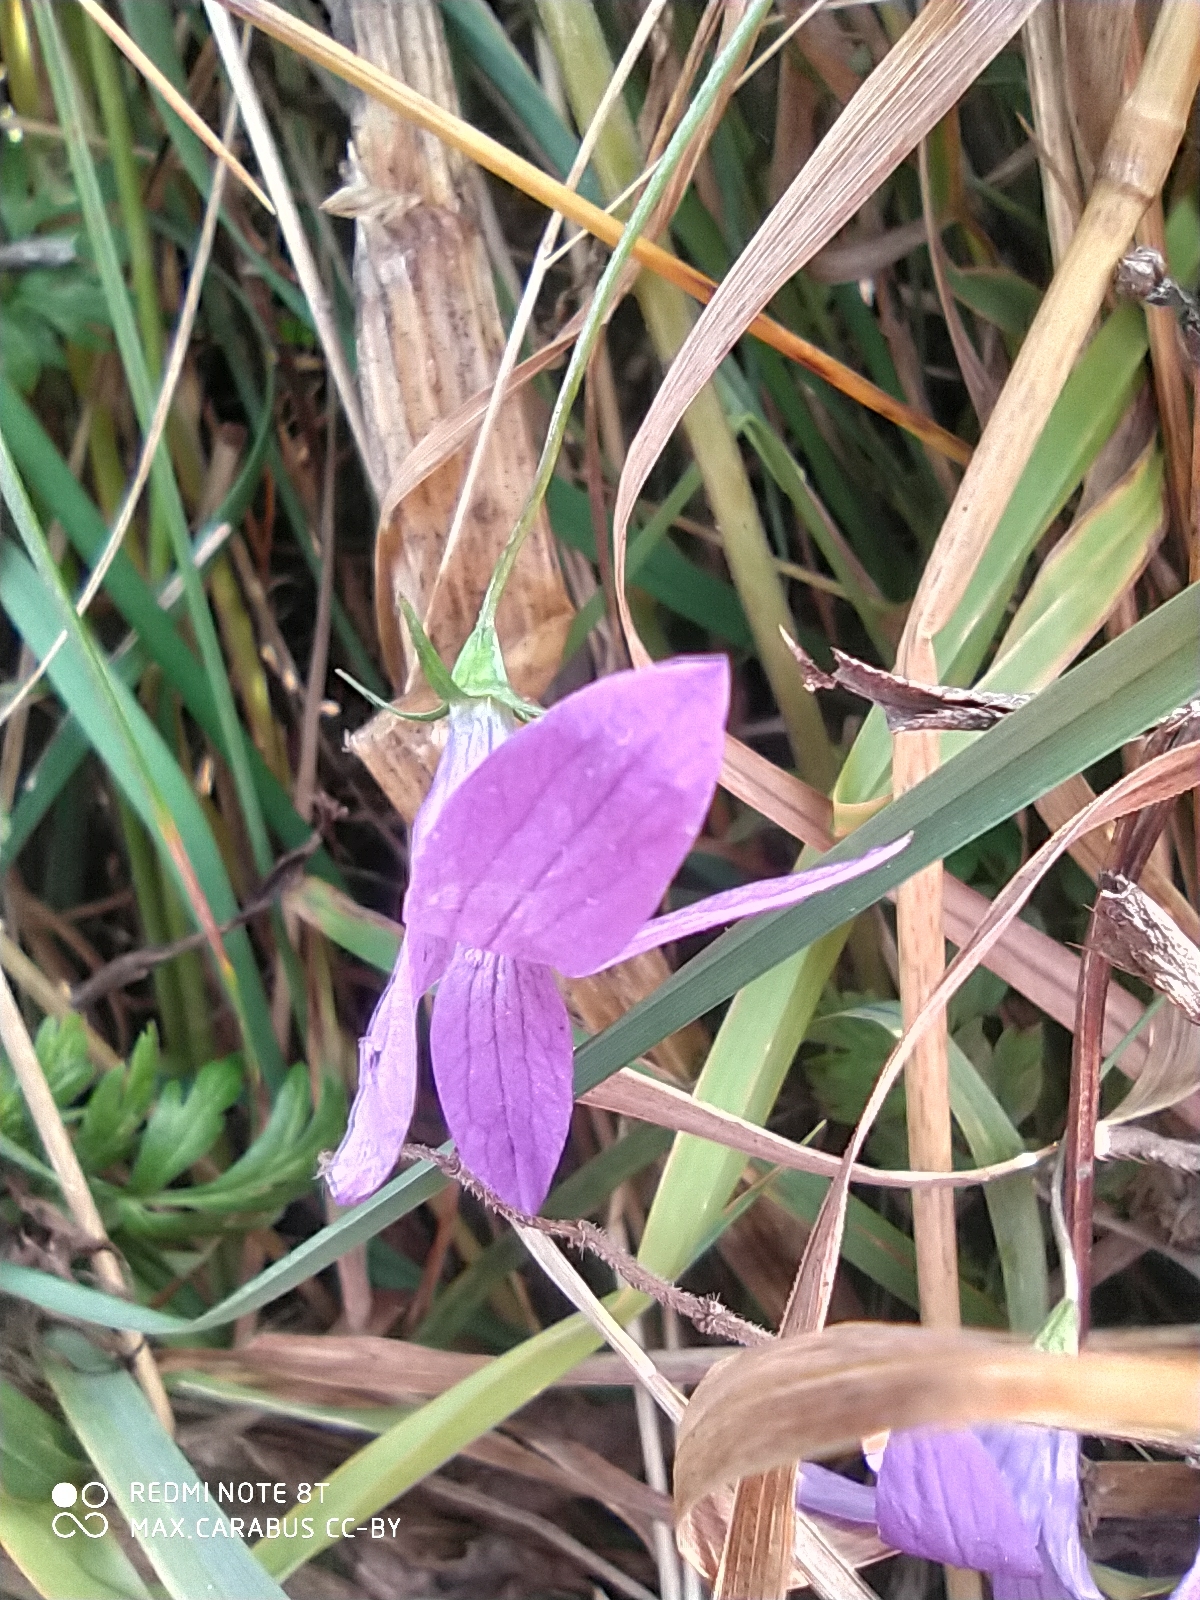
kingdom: Plantae
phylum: Tracheophyta
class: Magnoliopsida
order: Asterales
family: Campanulaceae
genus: Campanula
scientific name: Campanula patula
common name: Spreading bellflower
